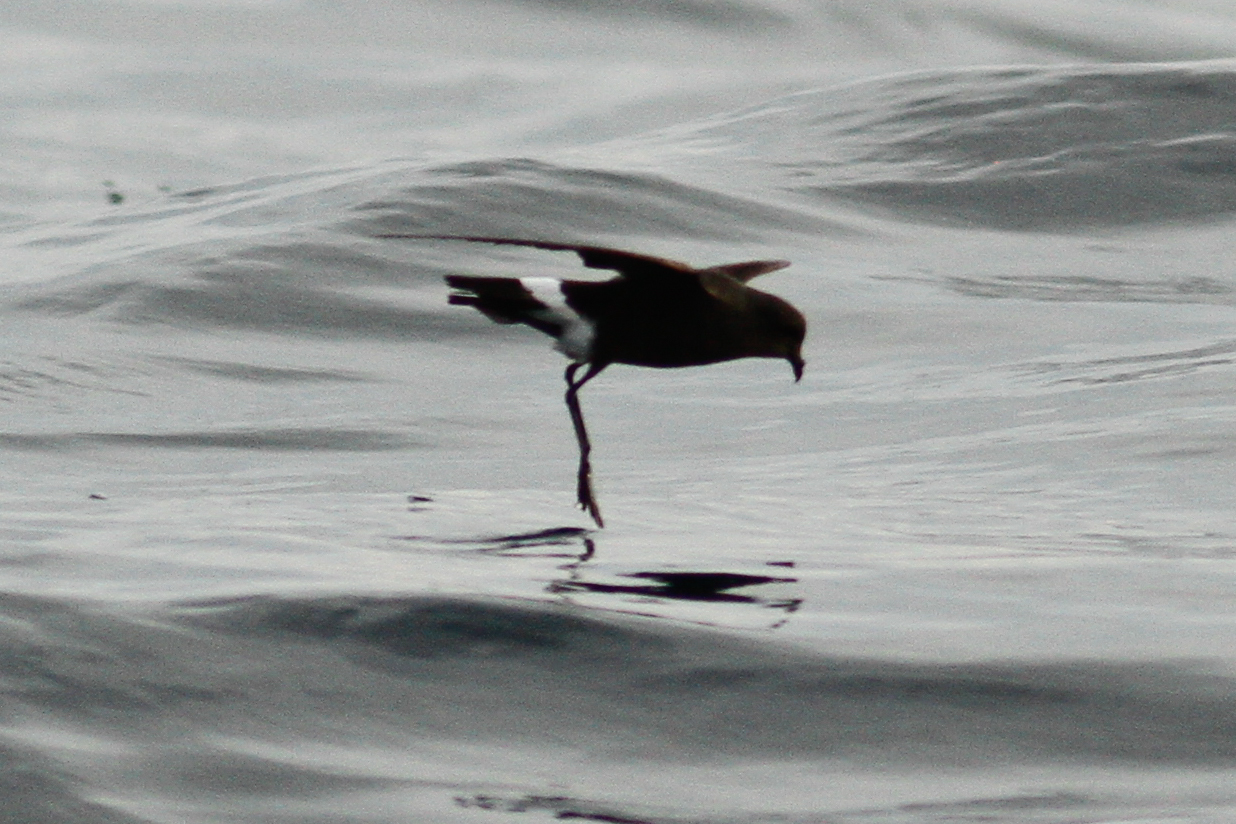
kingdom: Animalia
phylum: Chordata
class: Aves
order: Procellariiformes
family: Hydrobatidae
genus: Oceanites
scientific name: Oceanites oceanicus
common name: Wilson's storm petrel
